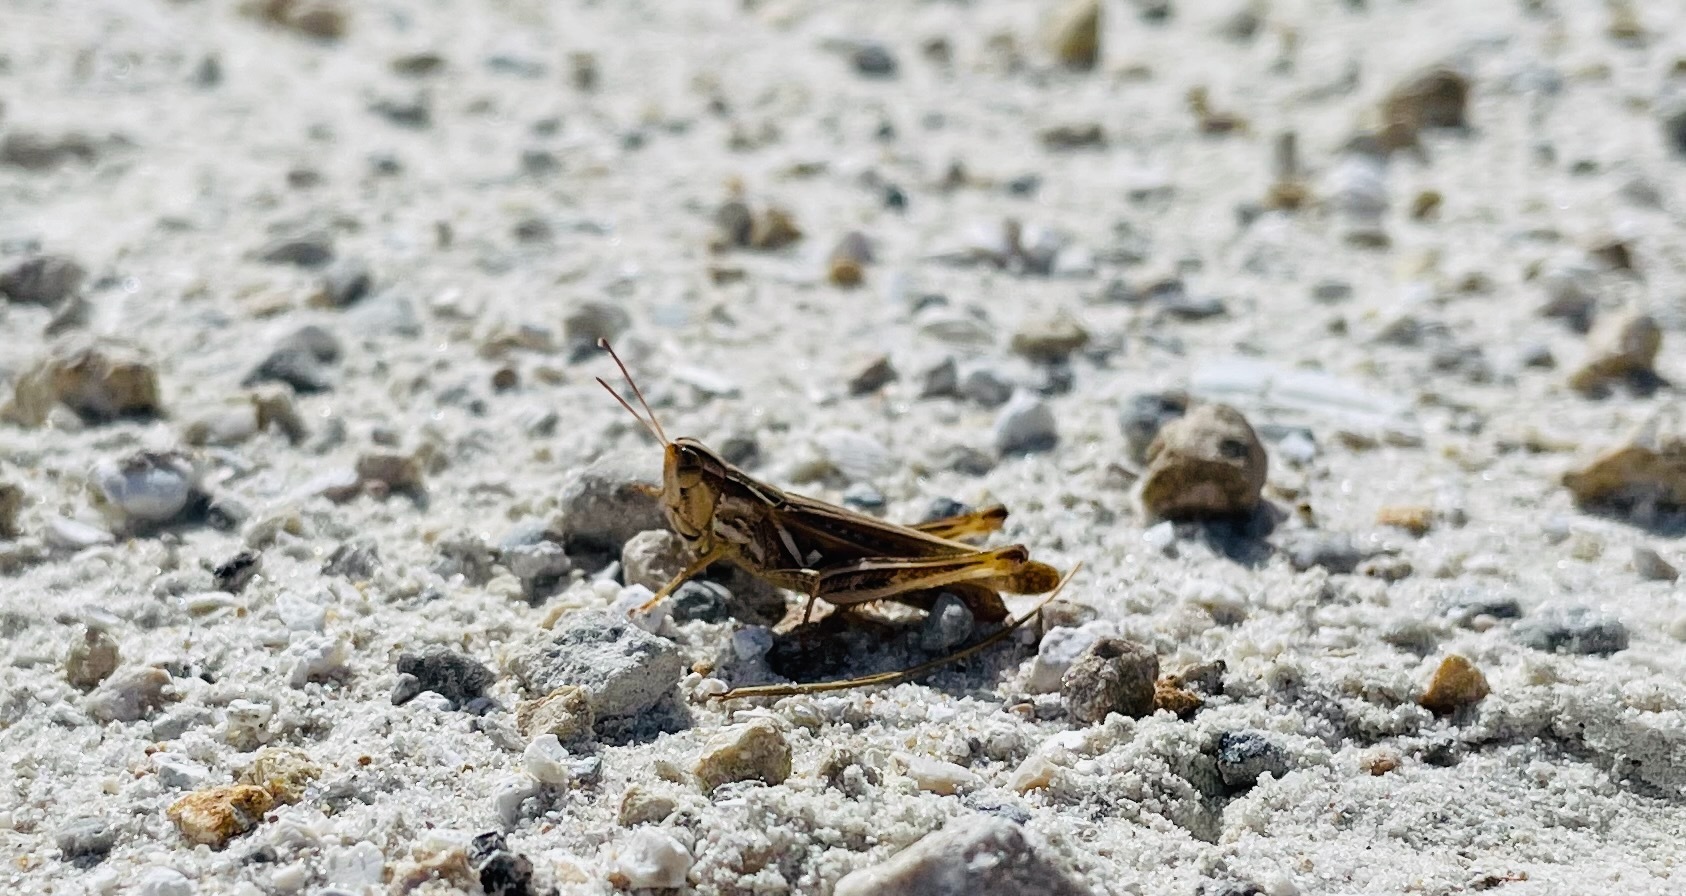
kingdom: Animalia
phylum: Arthropoda
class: Insecta
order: Orthoptera
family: Acrididae
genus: Orphulella
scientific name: Orphulella pelidna
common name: Spotted-wing grasshopper
